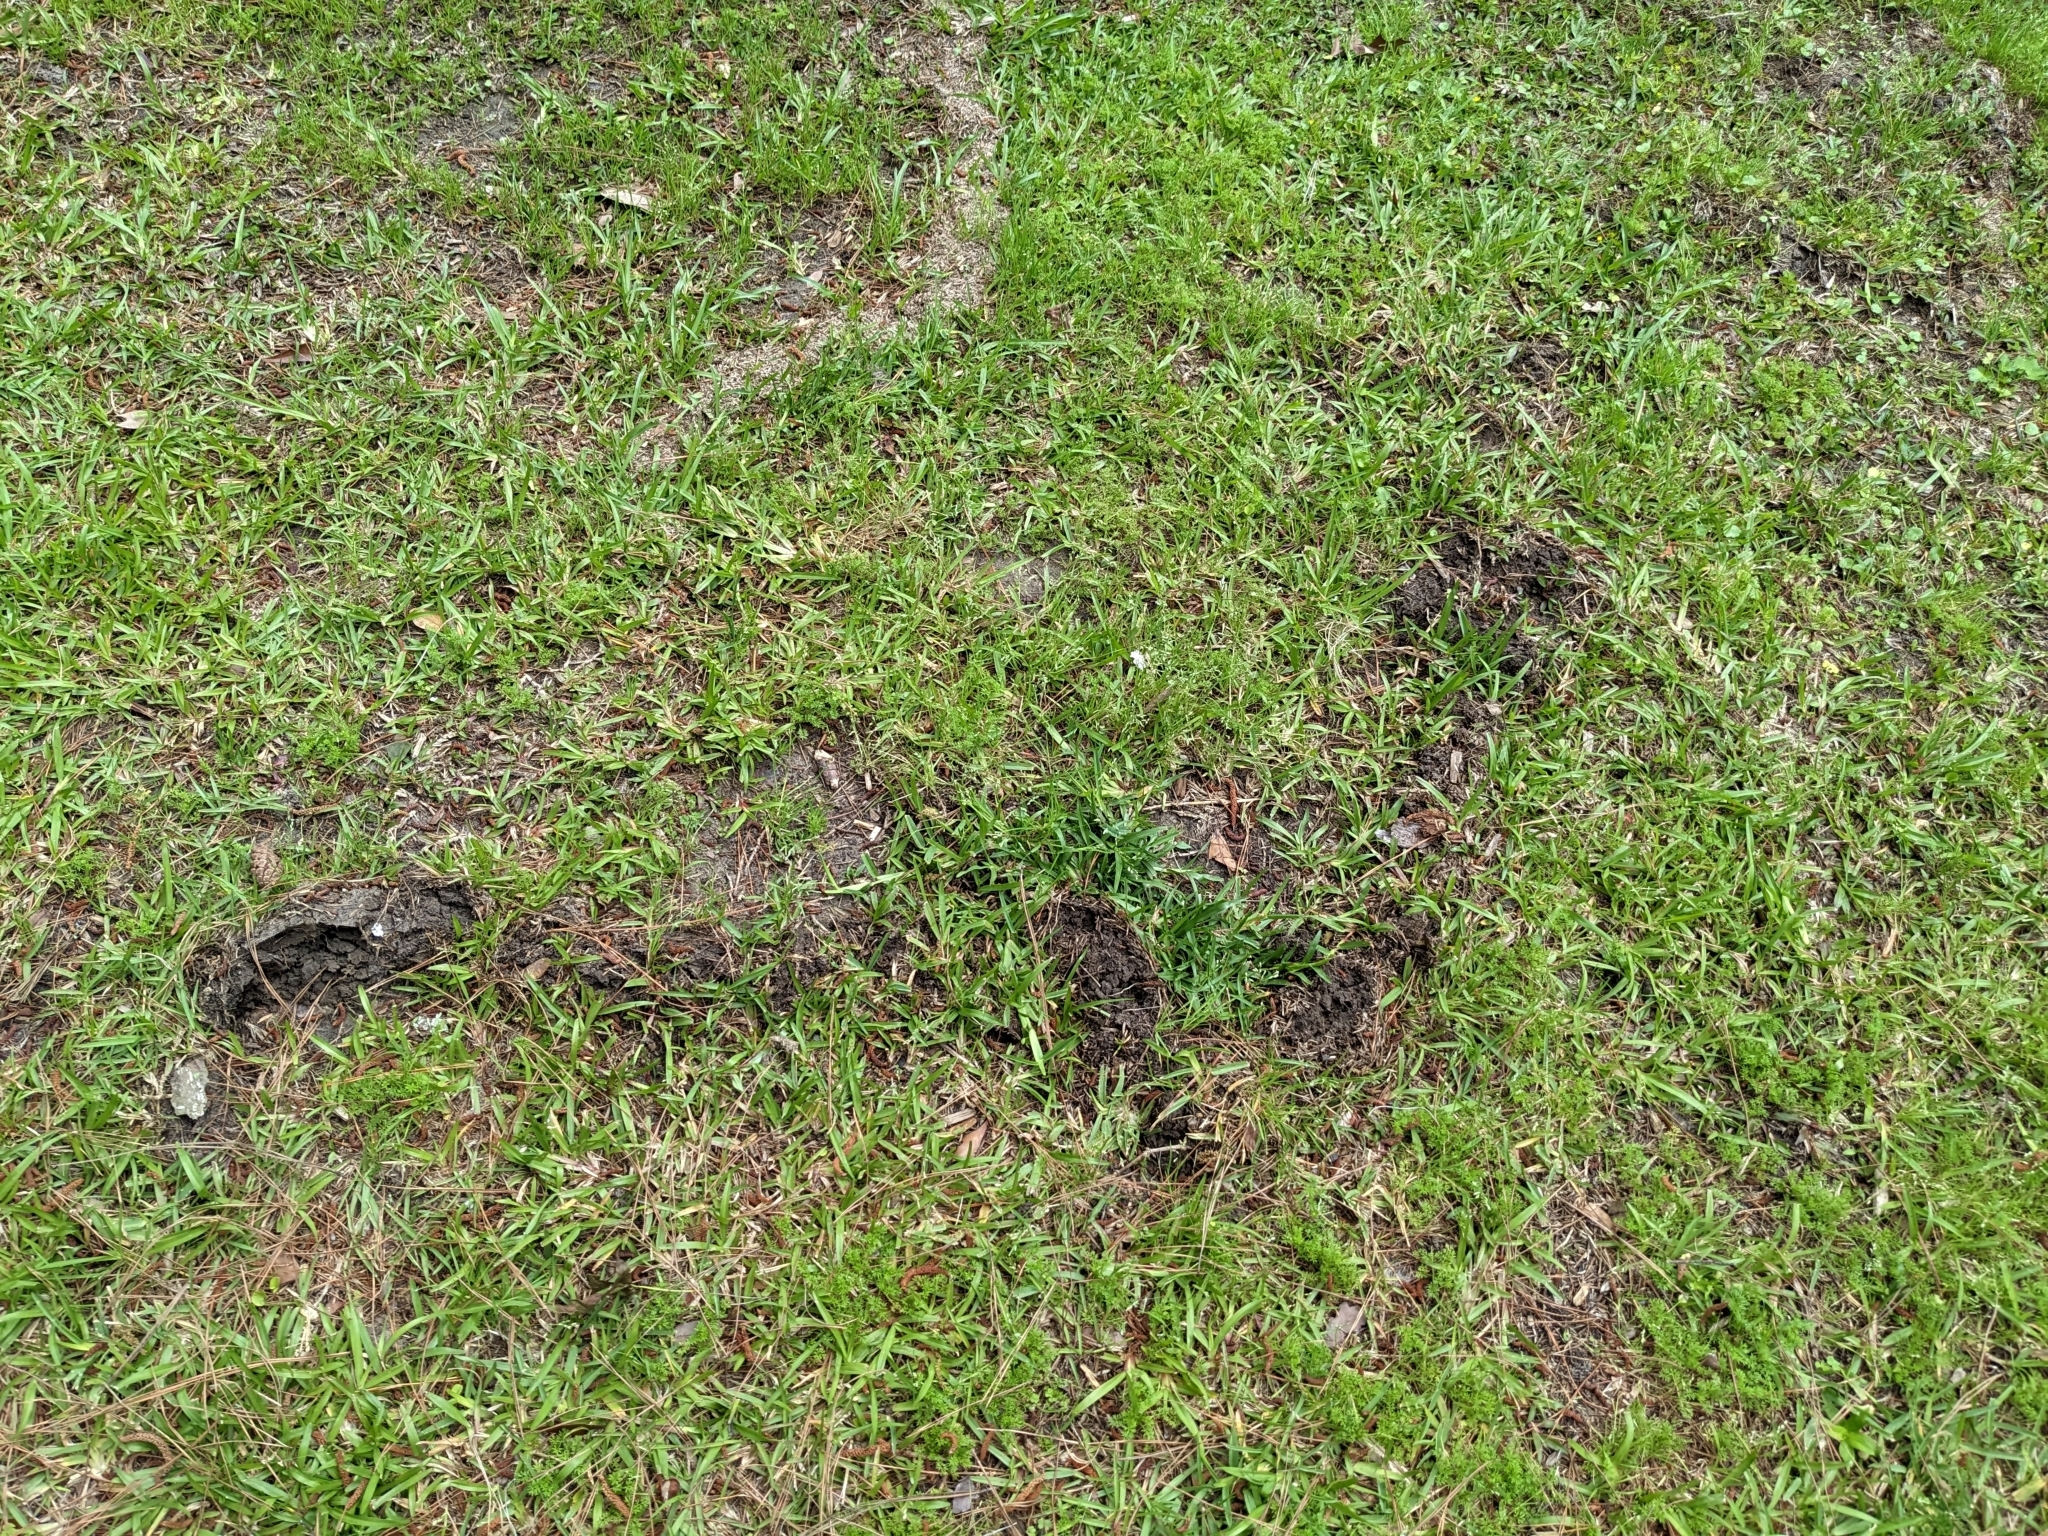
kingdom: Animalia
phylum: Chordata
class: Mammalia
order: Soricomorpha
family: Talpidae
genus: Scalopus
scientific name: Scalopus aquaticus
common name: Eastern mole
